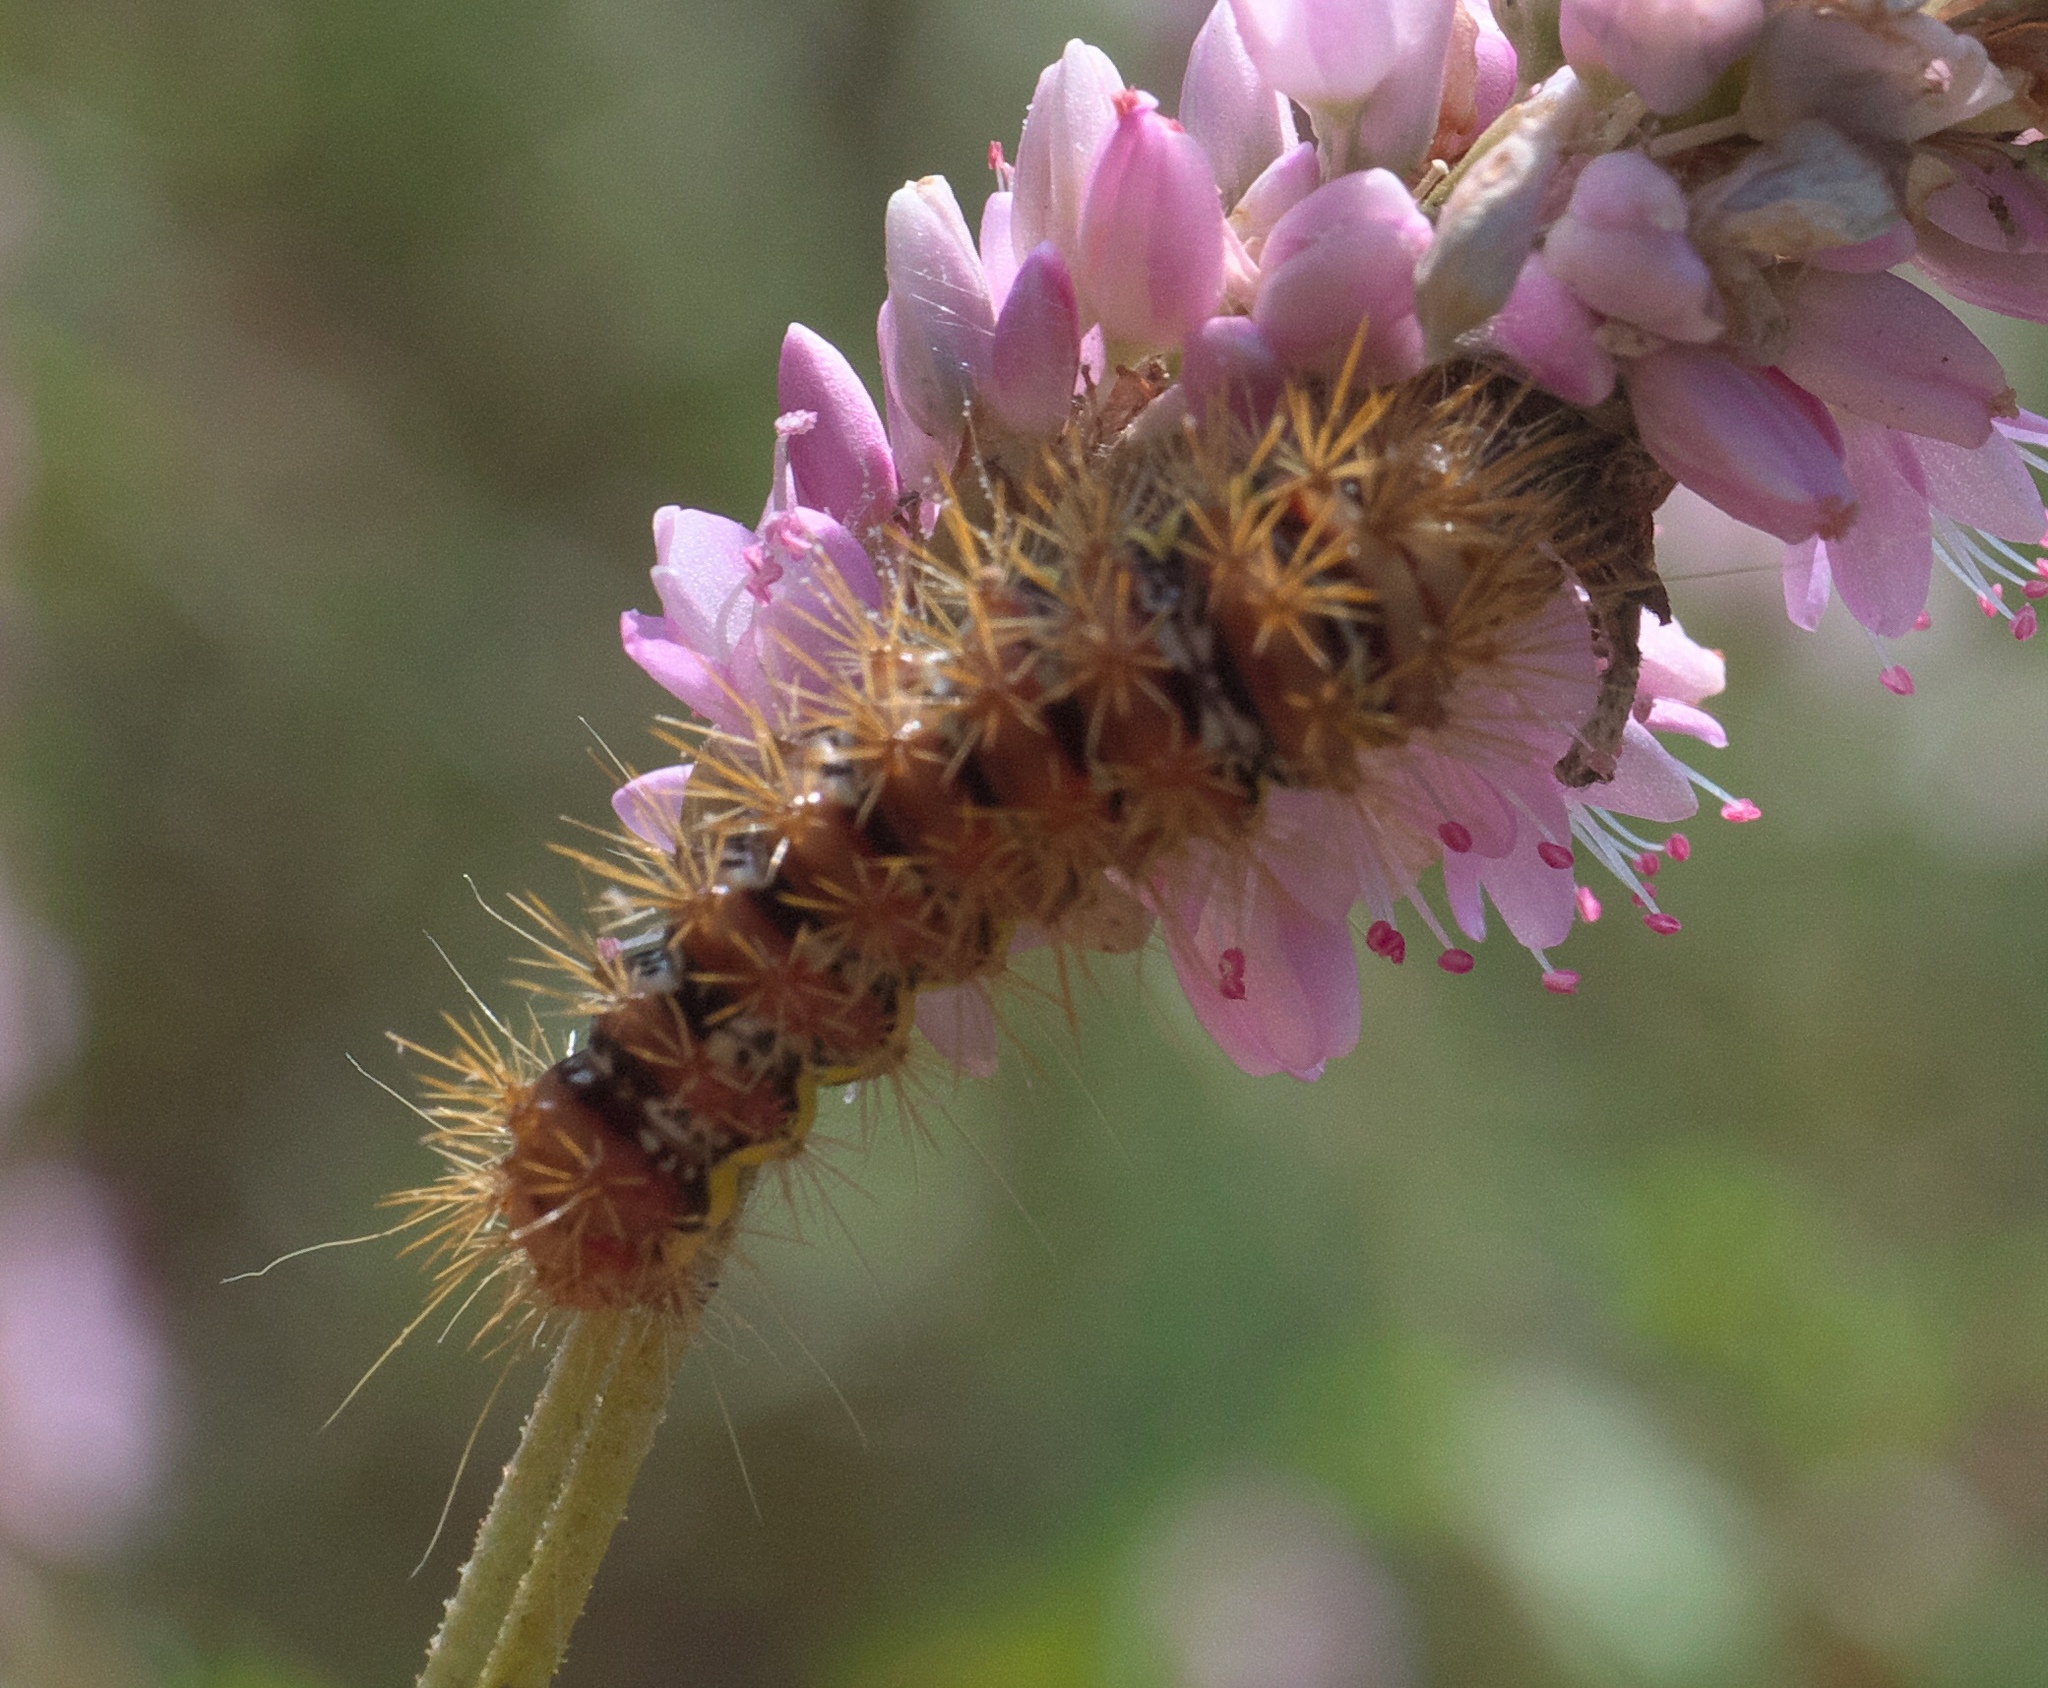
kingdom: Animalia
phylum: Arthropoda
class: Insecta
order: Lepidoptera
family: Noctuidae
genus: Acronicta
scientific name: Acronicta oblinita
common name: Smeared dagger
